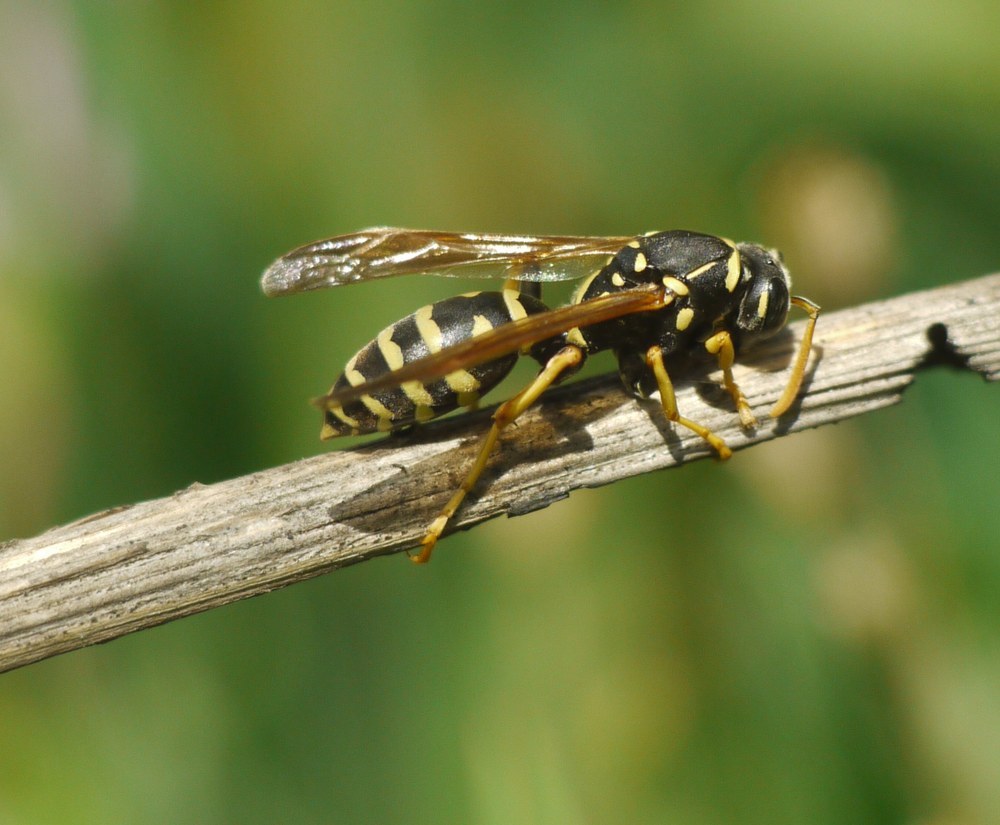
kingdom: Animalia
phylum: Arthropoda
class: Insecta
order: Hymenoptera
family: Eumenidae
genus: Polistes
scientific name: Polistes gallicus
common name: Paper wasp
